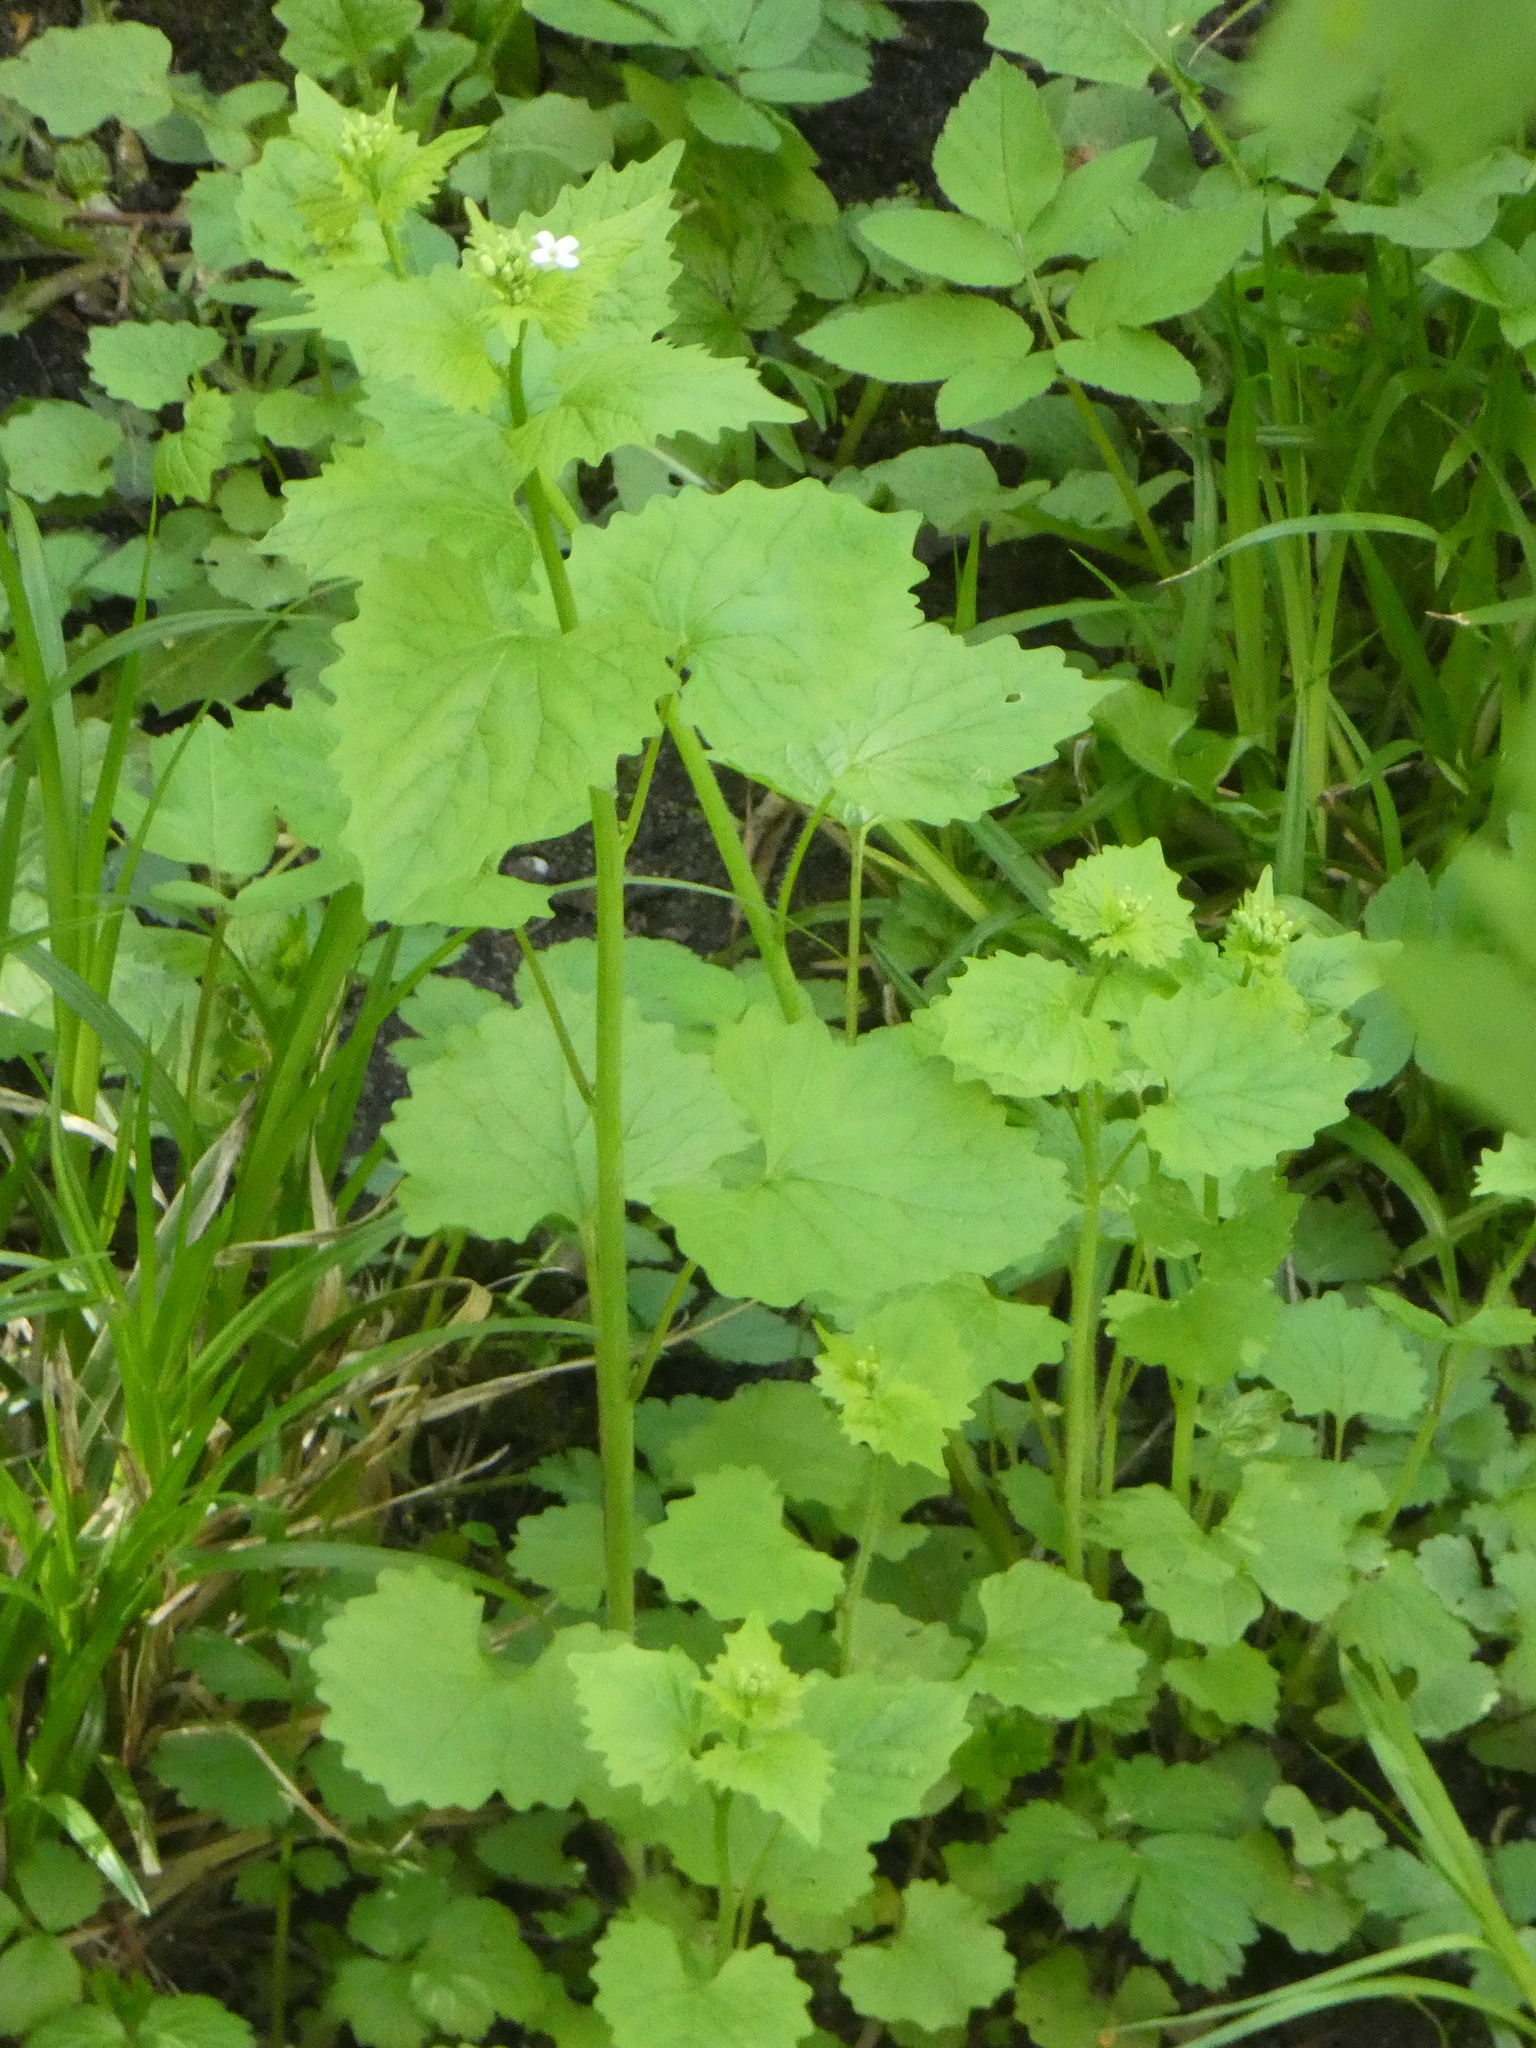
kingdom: Plantae
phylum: Tracheophyta
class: Magnoliopsida
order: Brassicales
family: Brassicaceae
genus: Alliaria
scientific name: Alliaria petiolata
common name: Garlic mustard
